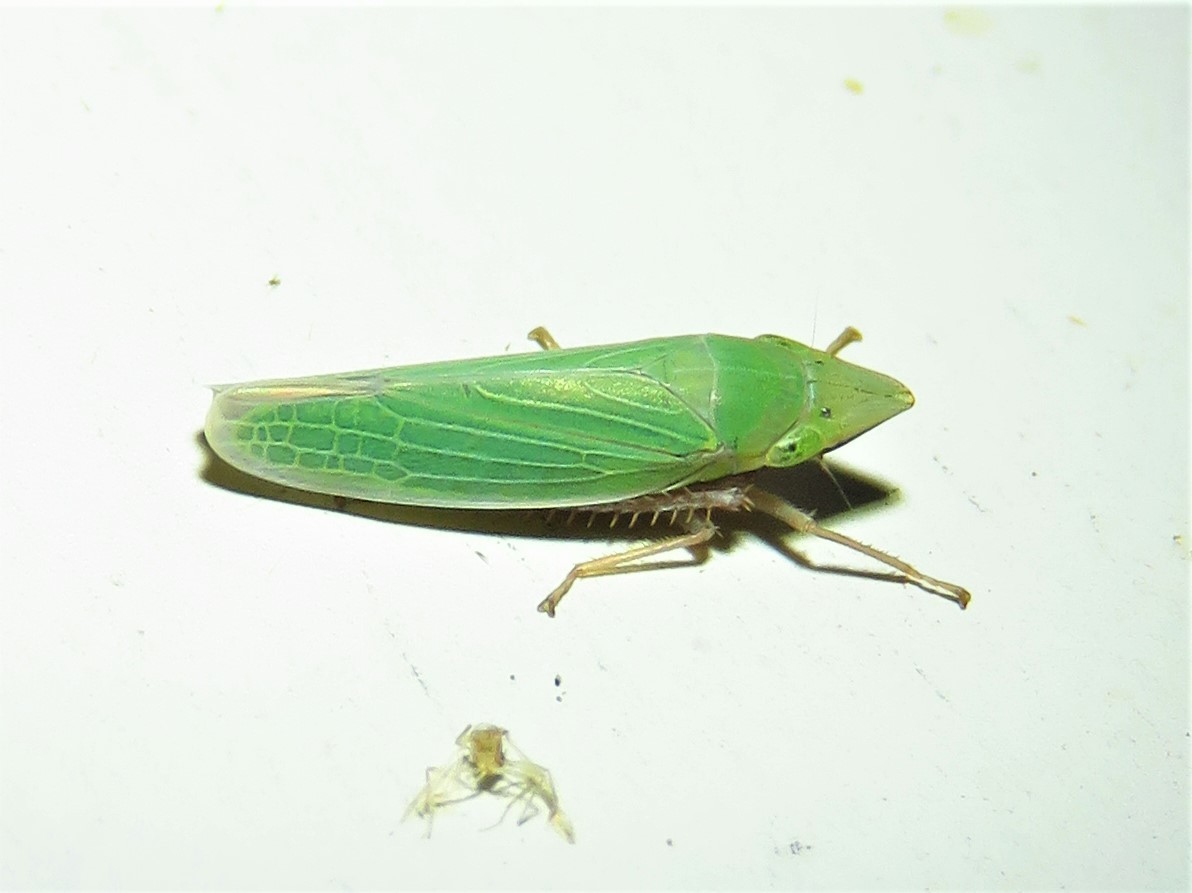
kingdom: Animalia
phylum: Arthropoda
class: Insecta
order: Hemiptera
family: Cicadellidae
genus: Draeculacephala
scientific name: Draeculacephala antica
